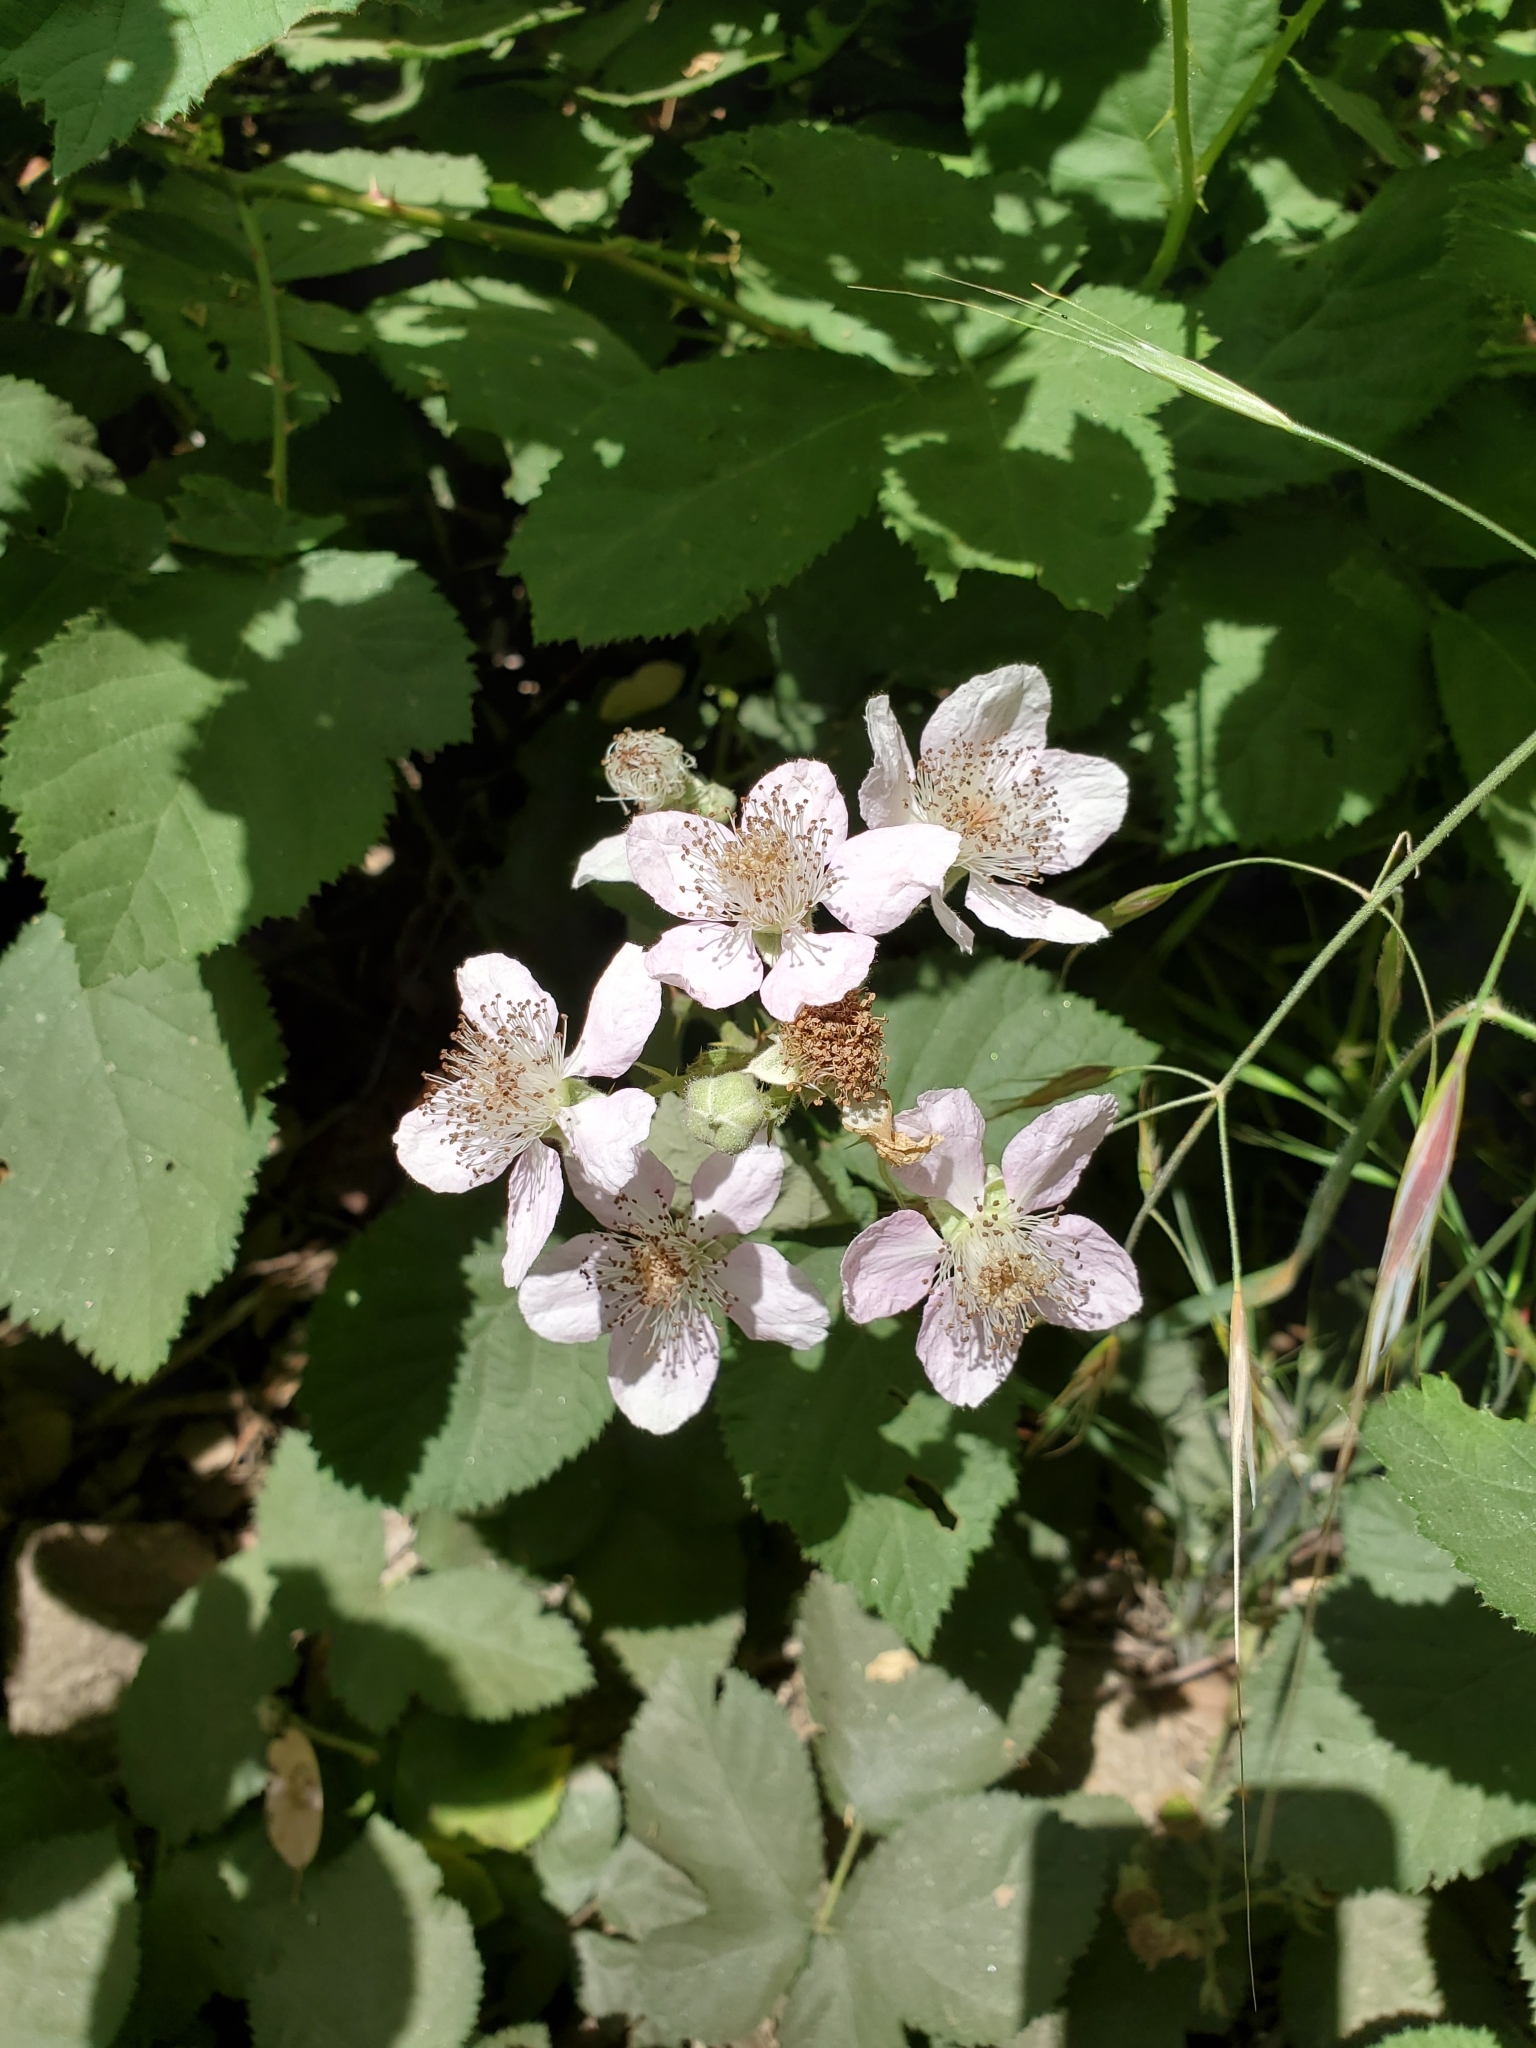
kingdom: Plantae
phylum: Tracheophyta
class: Magnoliopsida
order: Rosales
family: Rosaceae
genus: Rubus
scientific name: Rubus armeniacus
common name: Himalayan blackberry
